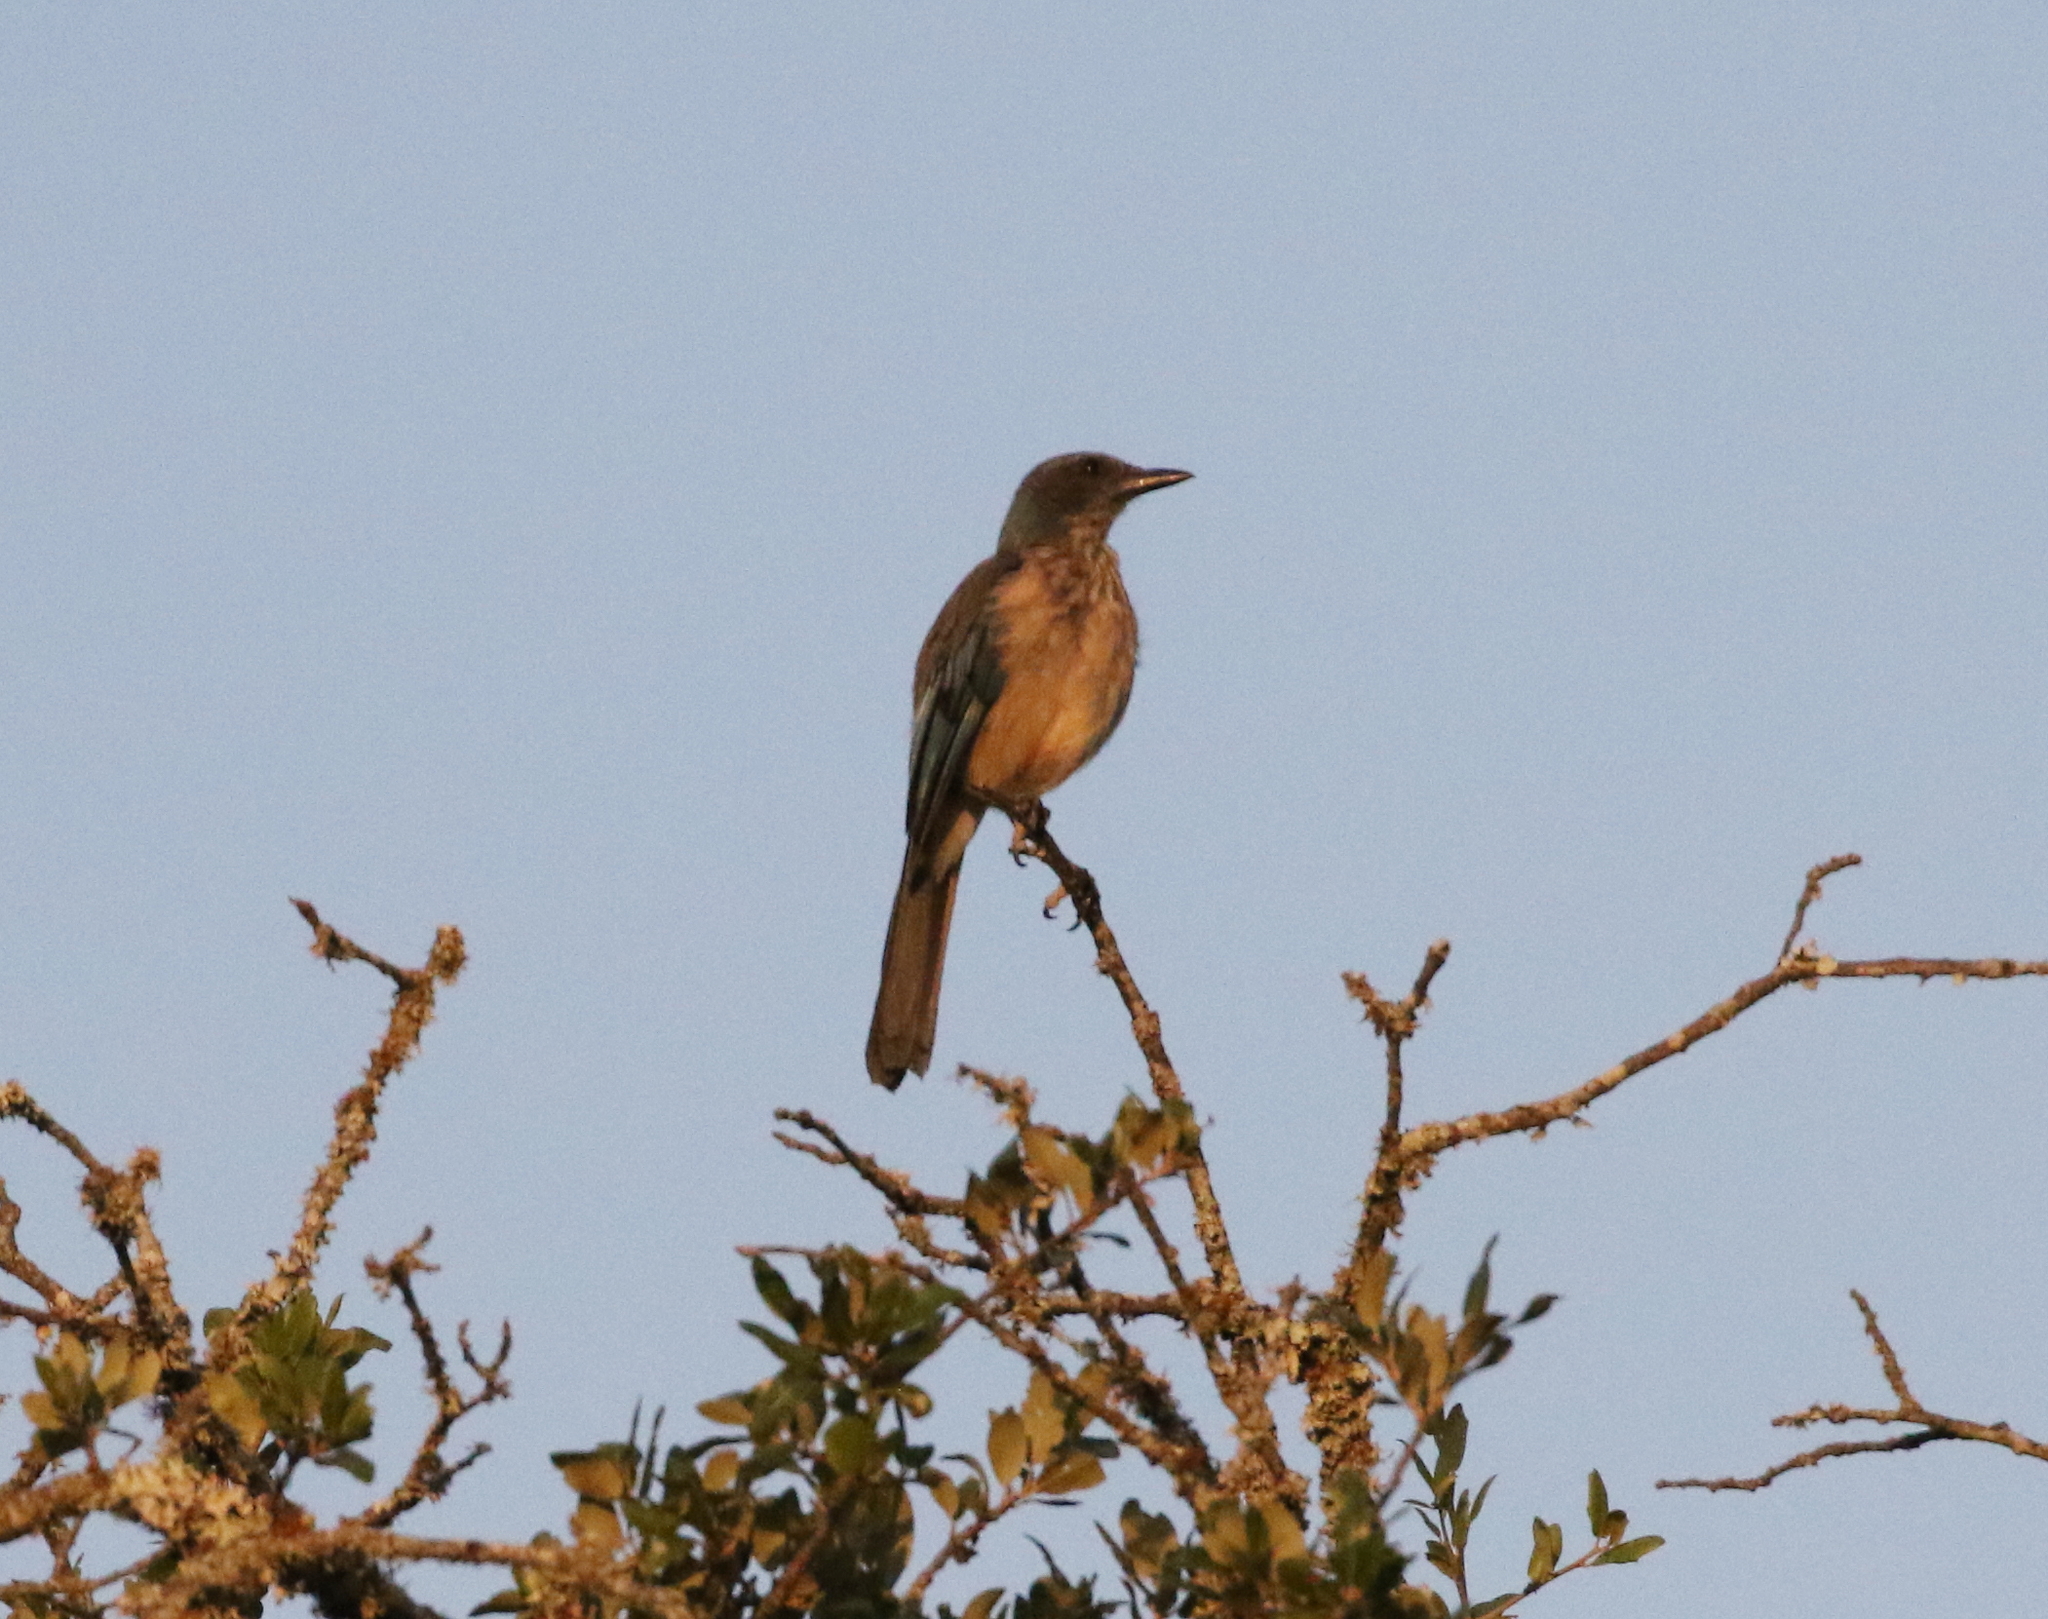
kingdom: Animalia
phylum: Chordata
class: Aves
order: Passeriformes
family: Corvidae
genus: Aphelocoma
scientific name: Aphelocoma woodhouseii
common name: Woodhouse's scrub-jay
